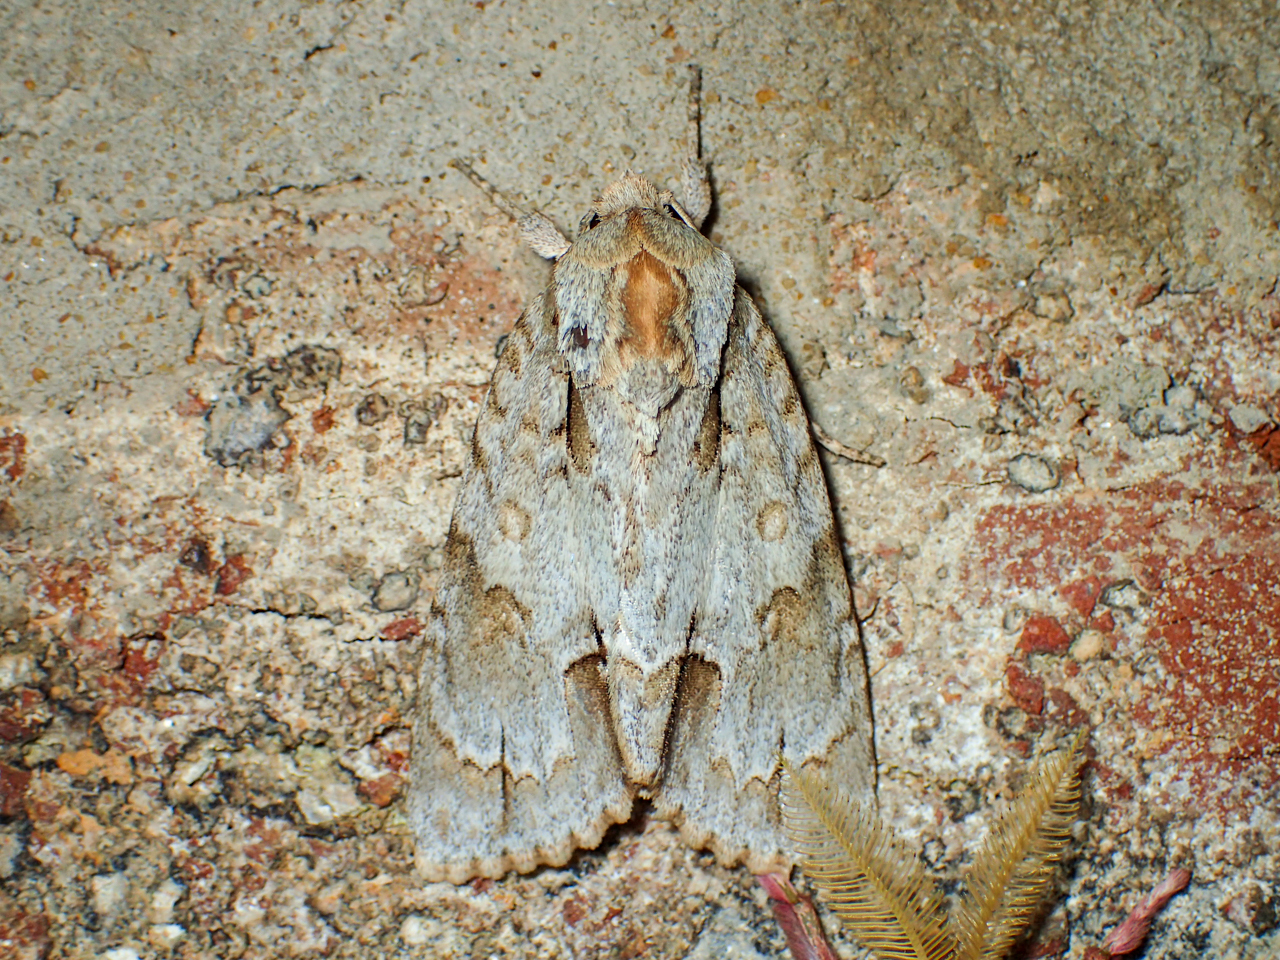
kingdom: Animalia
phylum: Arthropoda
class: Insecta
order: Lepidoptera
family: Noctuidae
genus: Acronicta
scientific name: Acronicta morula
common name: Ochre dagger
